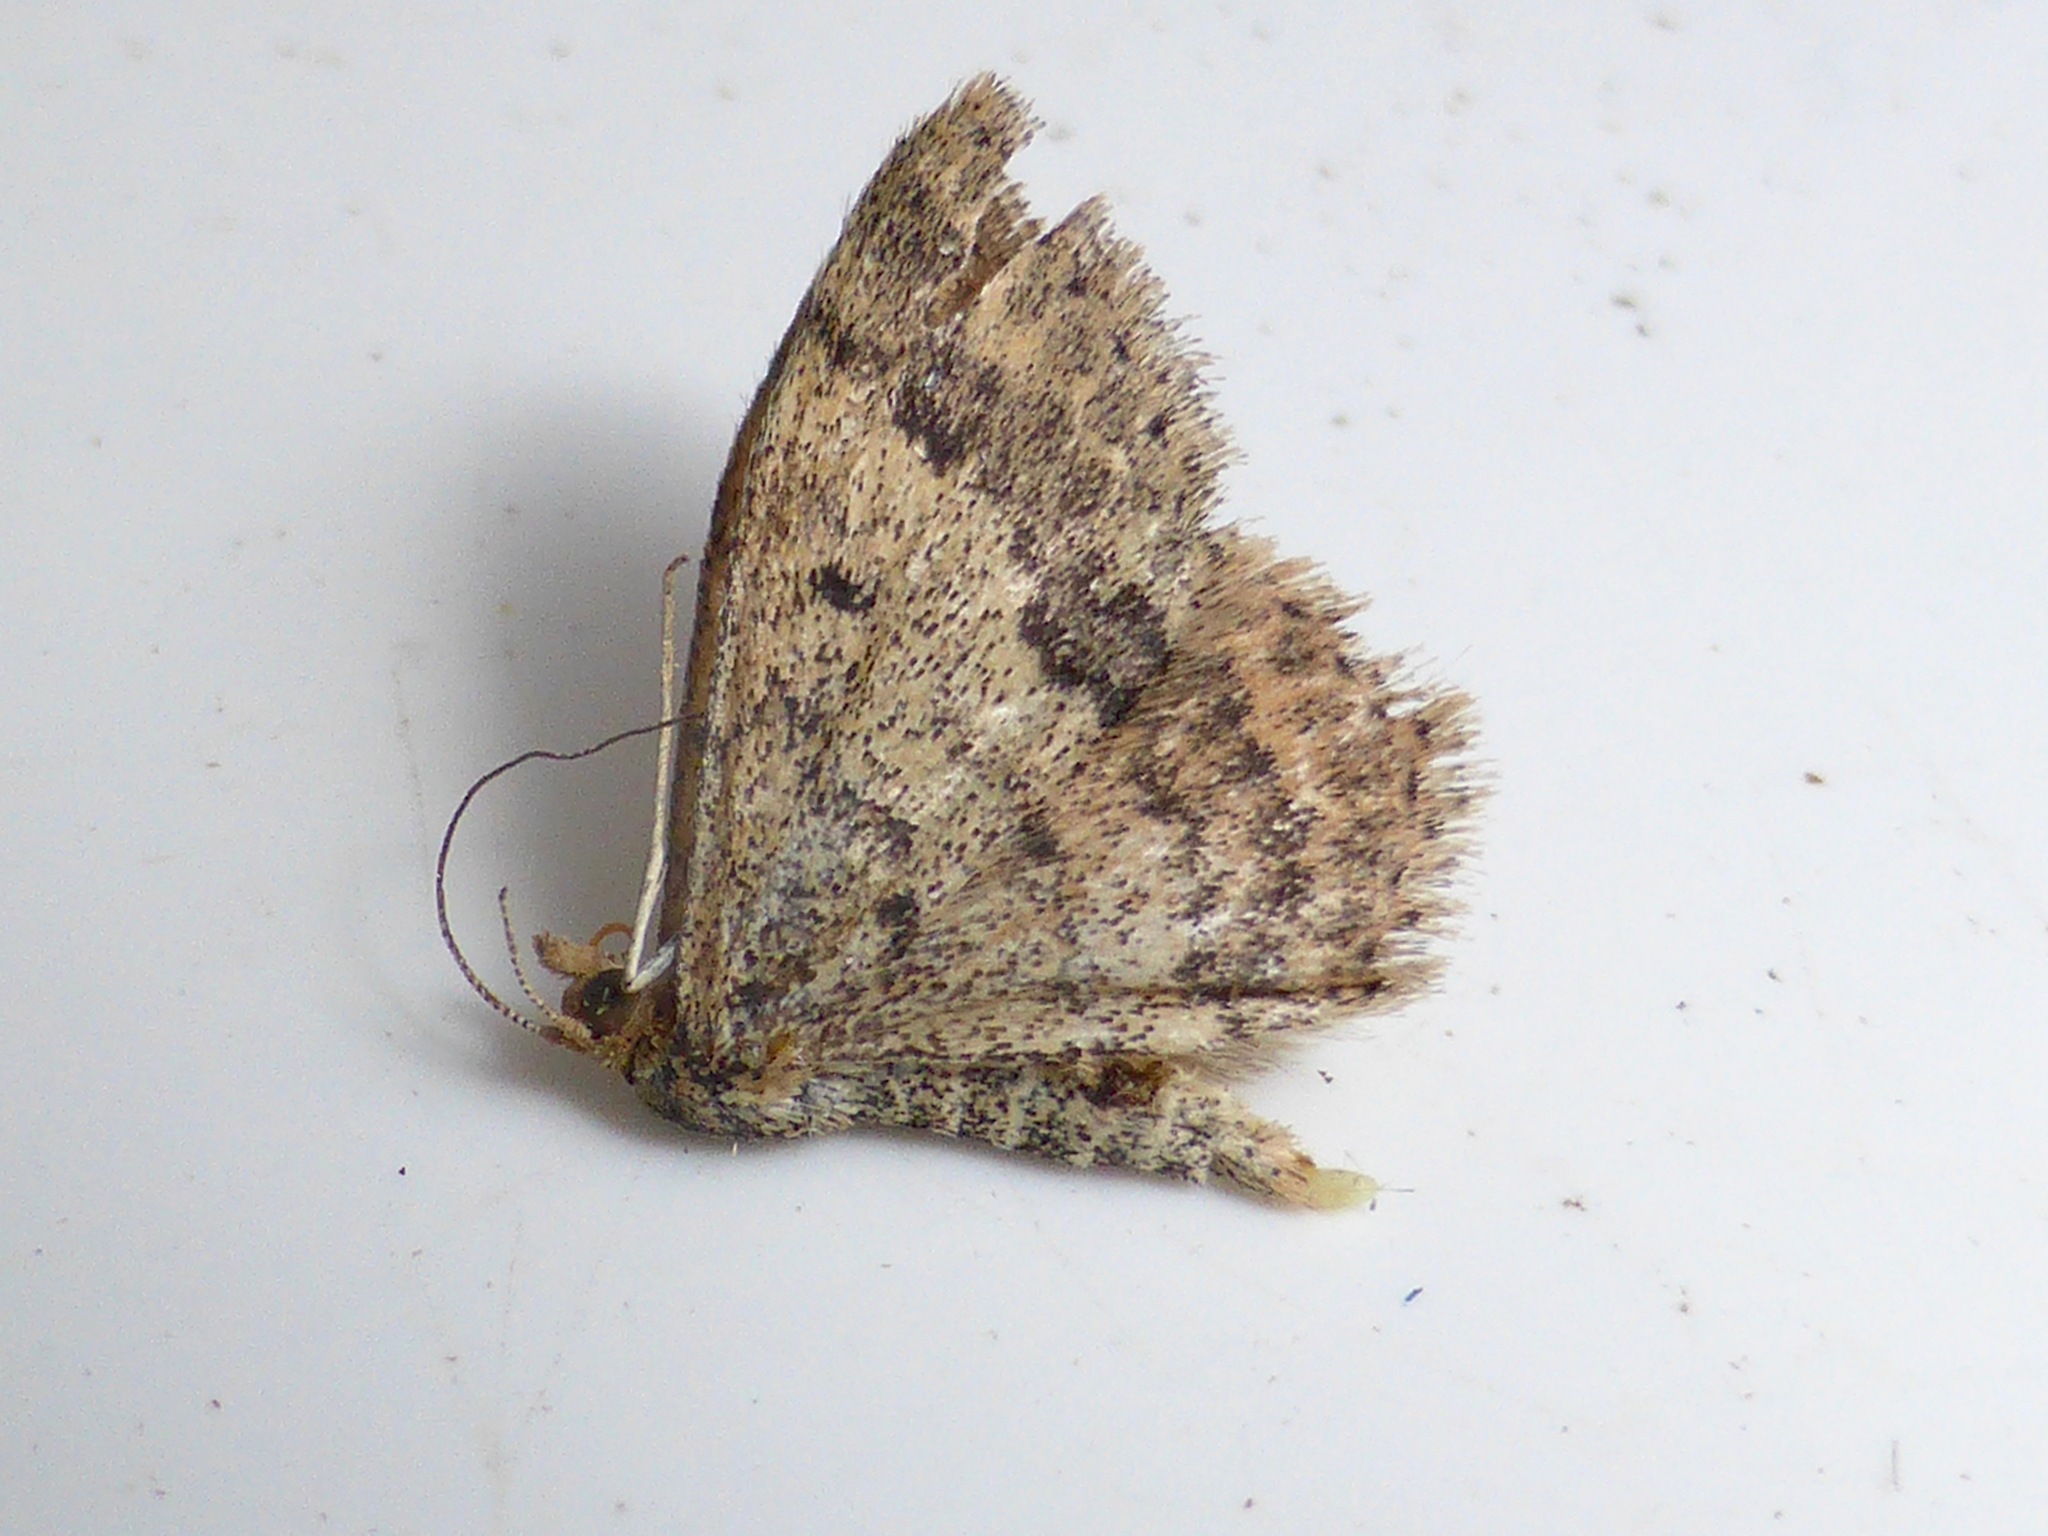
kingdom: Animalia
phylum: Arthropoda
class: Insecta
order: Lepidoptera
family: Geometridae
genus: Scopula
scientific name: Scopula rubraria
